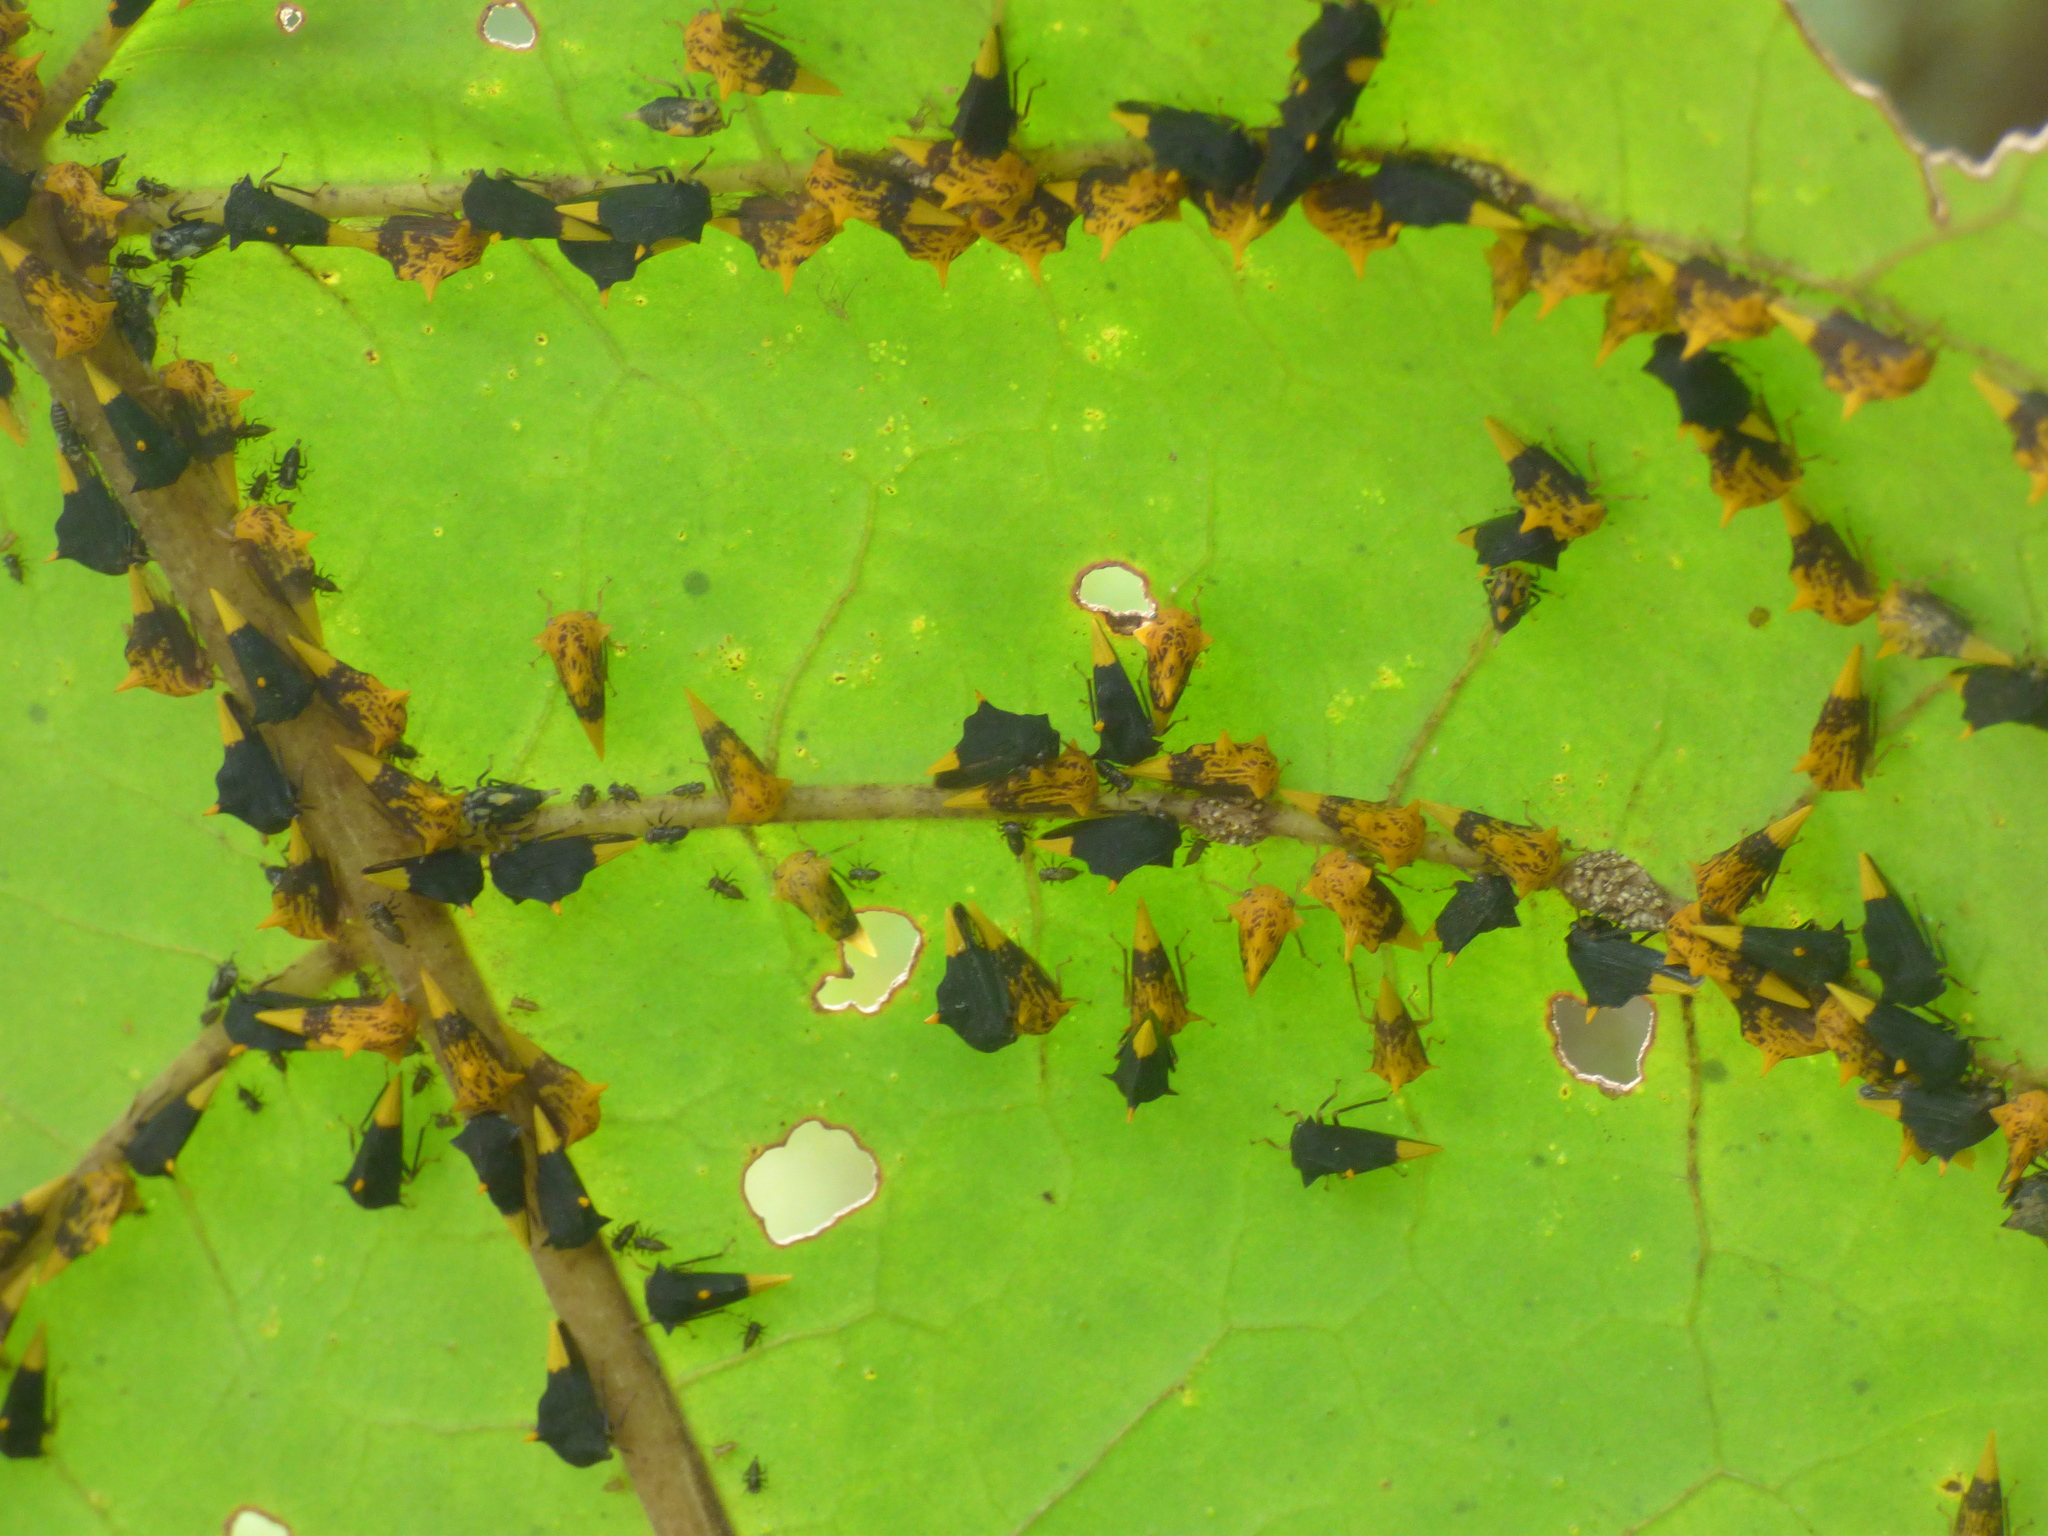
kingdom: Animalia
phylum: Arthropoda
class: Insecta
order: Hemiptera
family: Membracidae
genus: Ennya
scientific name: Ennya chrysura
